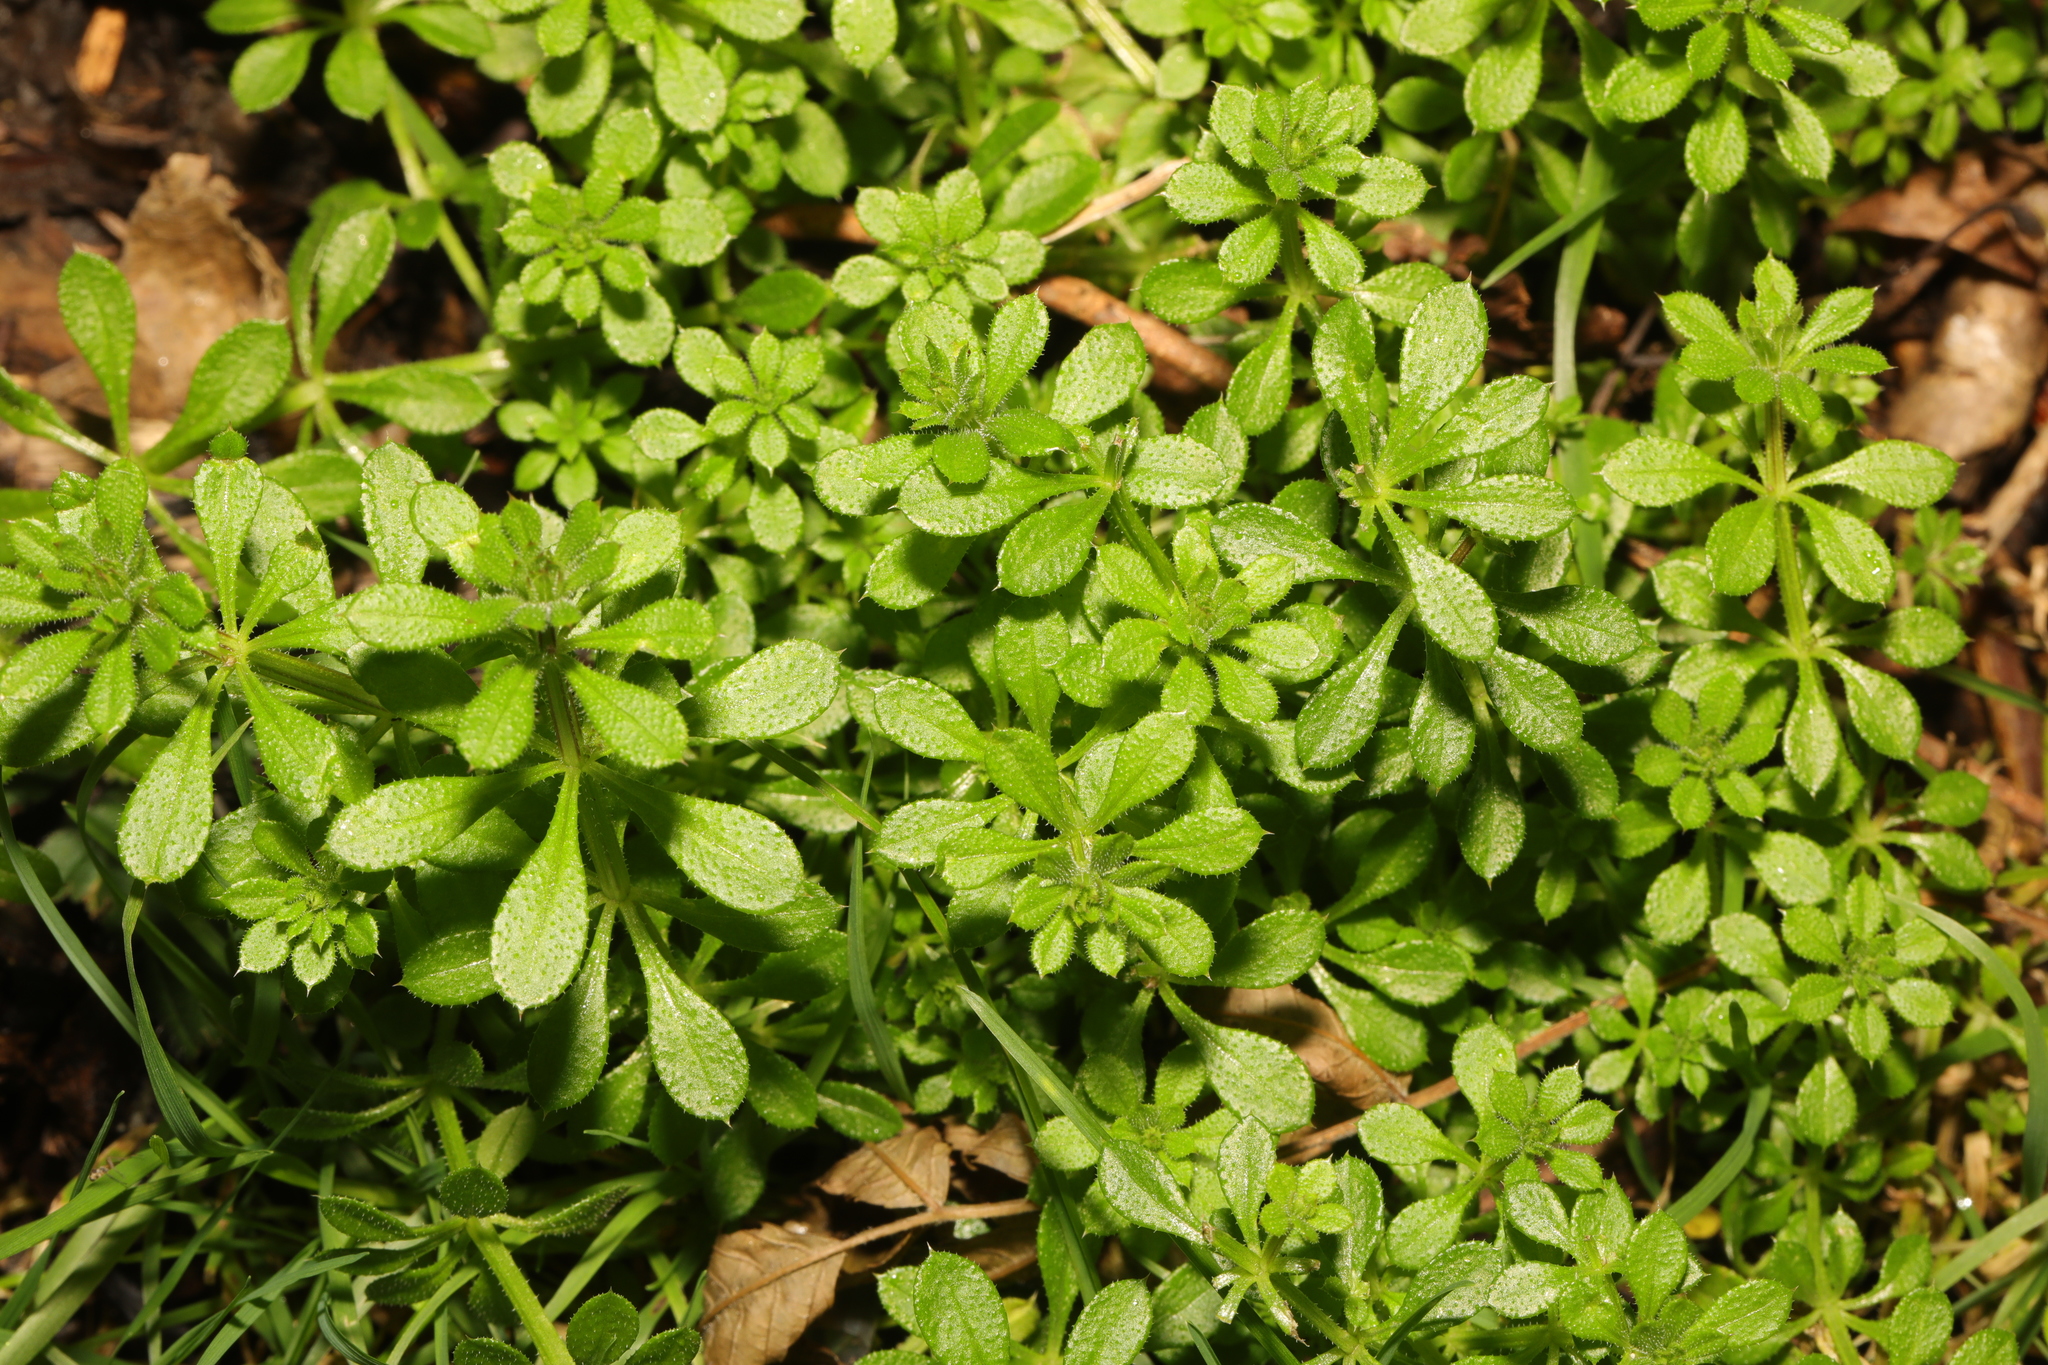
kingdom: Plantae
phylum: Tracheophyta
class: Magnoliopsida
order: Gentianales
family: Rubiaceae
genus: Galium
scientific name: Galium aparine
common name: Cleavers
